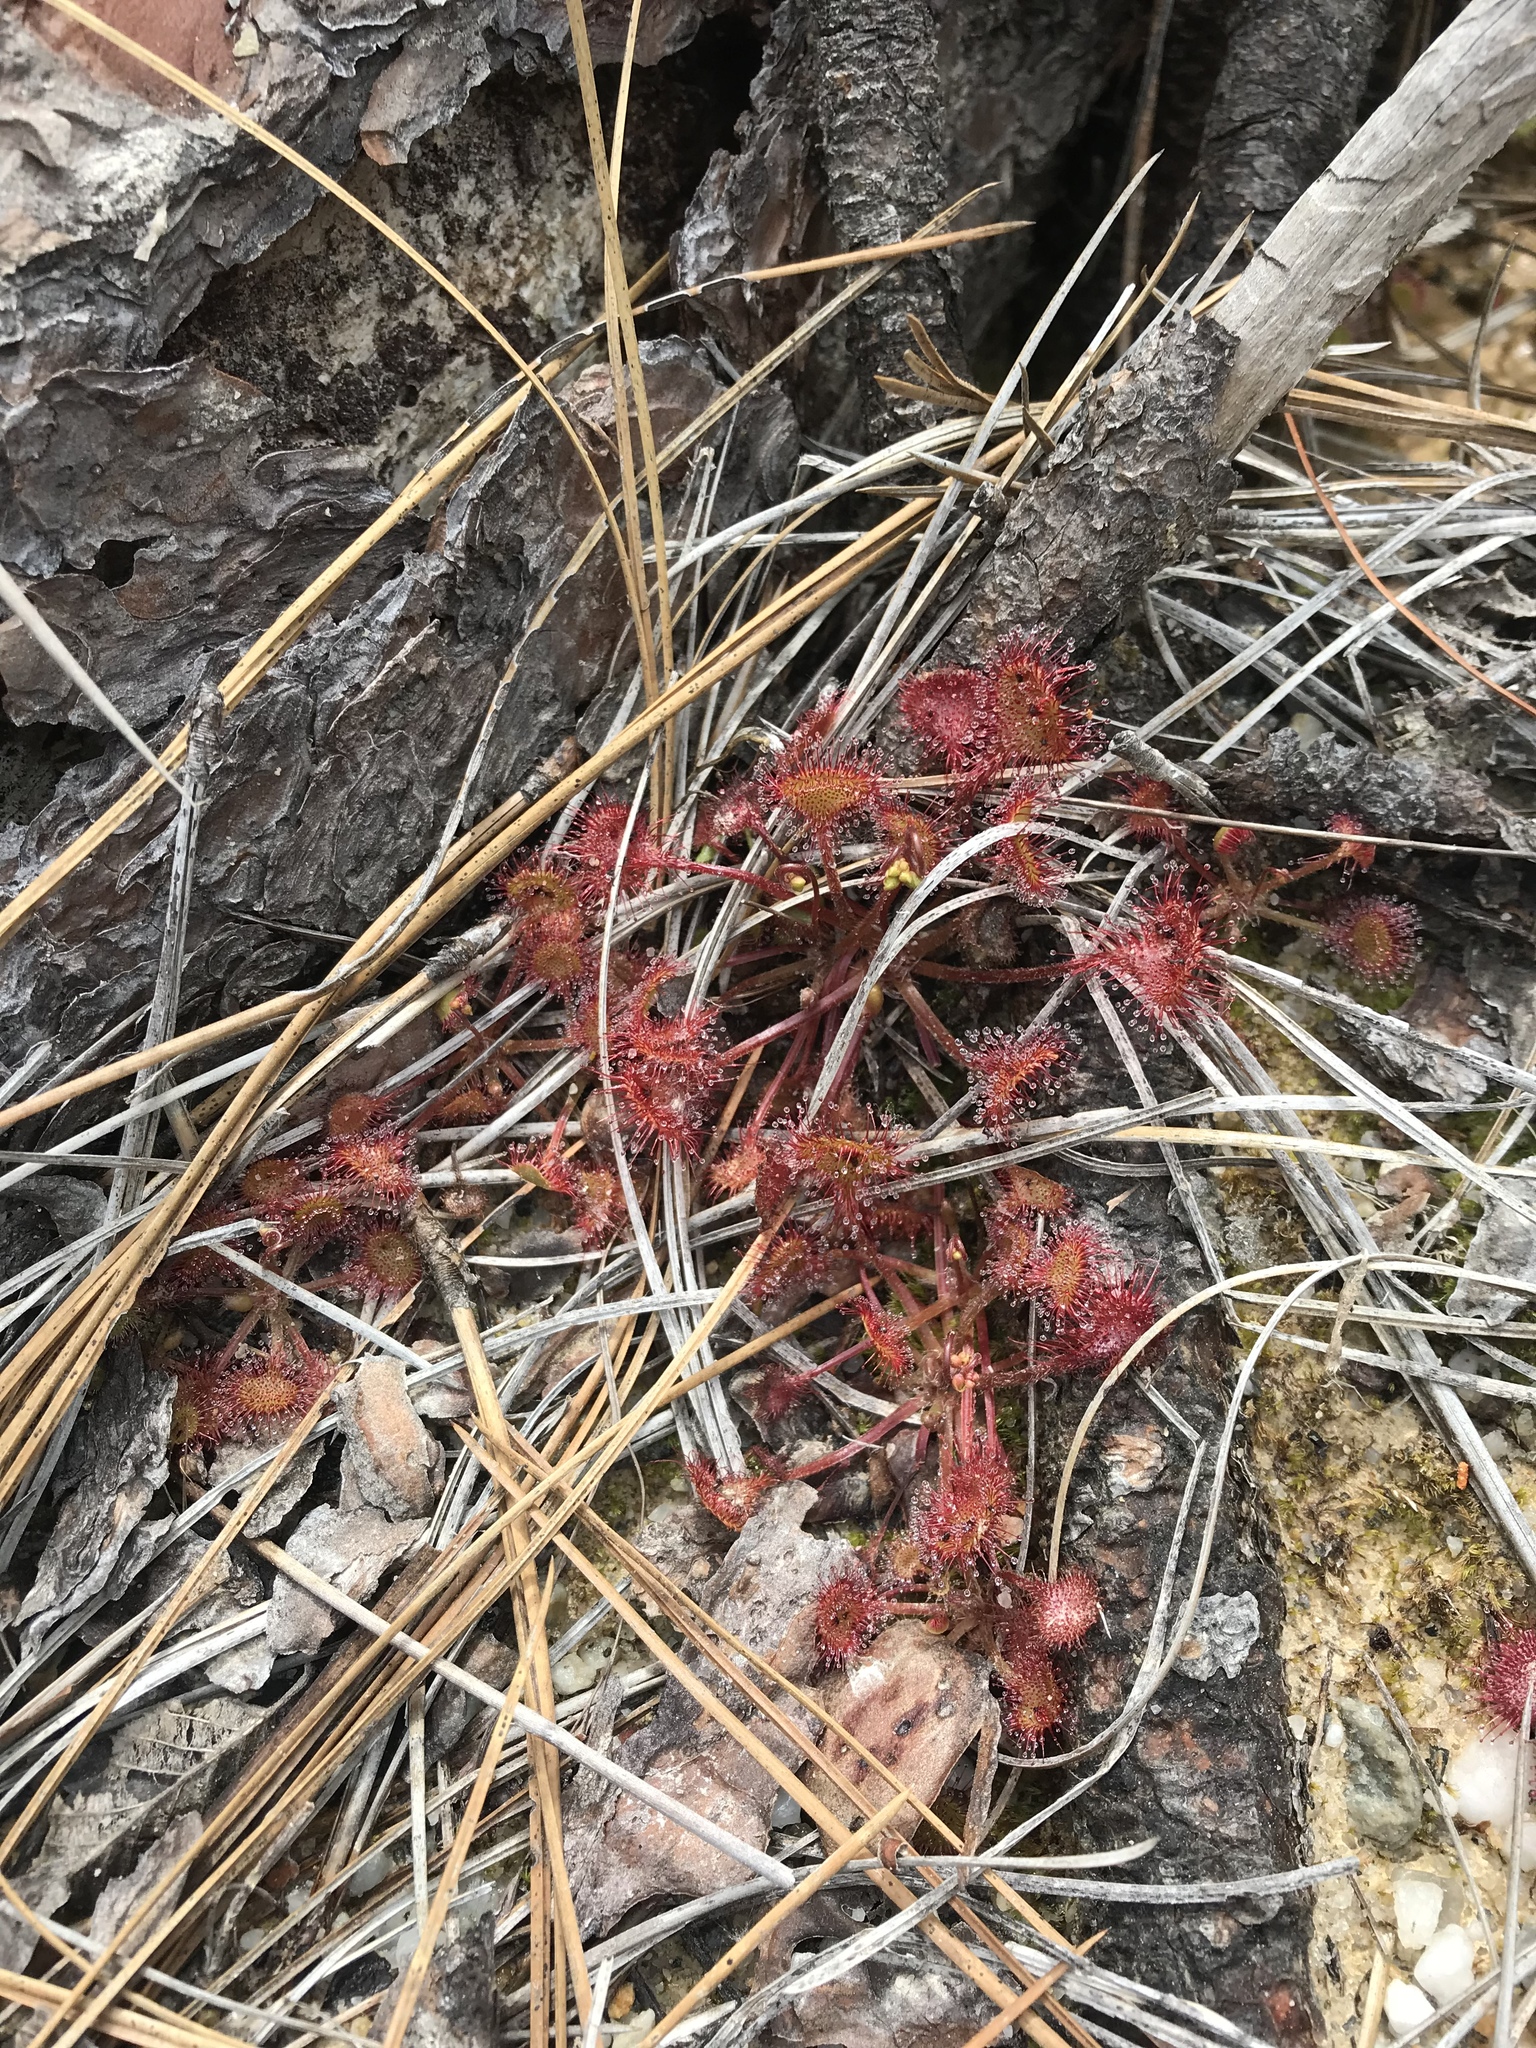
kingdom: Plantae
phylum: Tracheophyta
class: Magnoliopsida
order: Caryophyllales
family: Droseraceae
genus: Drosera
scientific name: Drosera rotundifolia
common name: Round-leaved sundew
